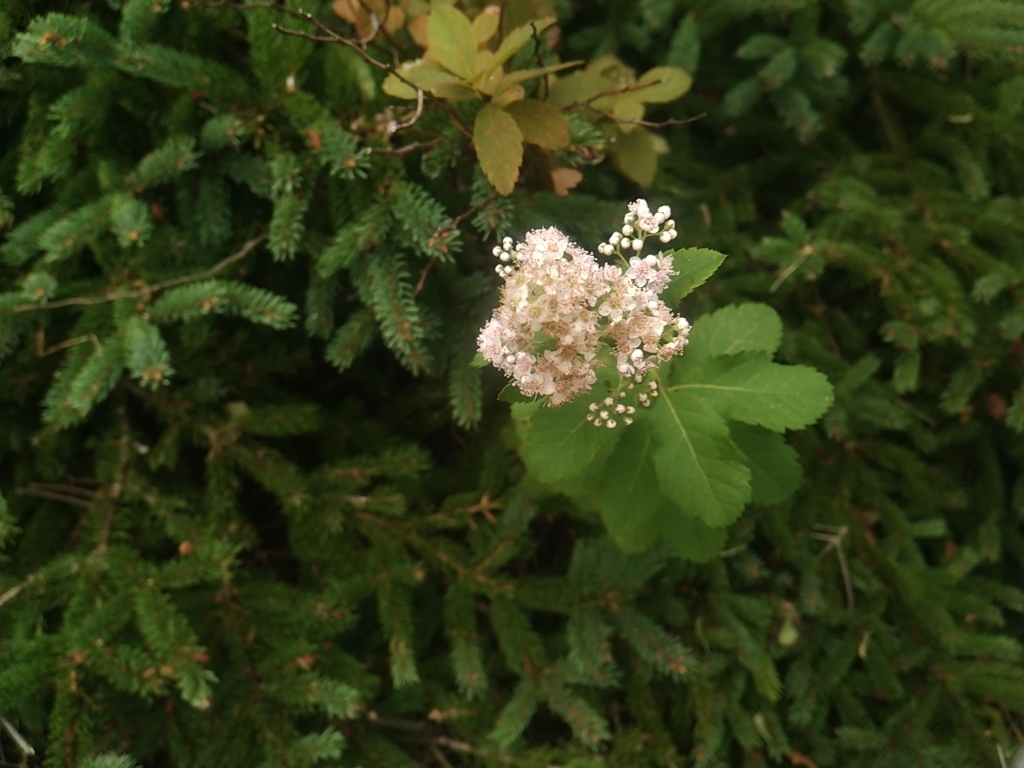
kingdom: Plantae
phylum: Tracheophyta
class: Magnoliopsida
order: Rosales
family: Rosaceae
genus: Spiraea
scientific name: Spiraea alba
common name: Pale bridewort
